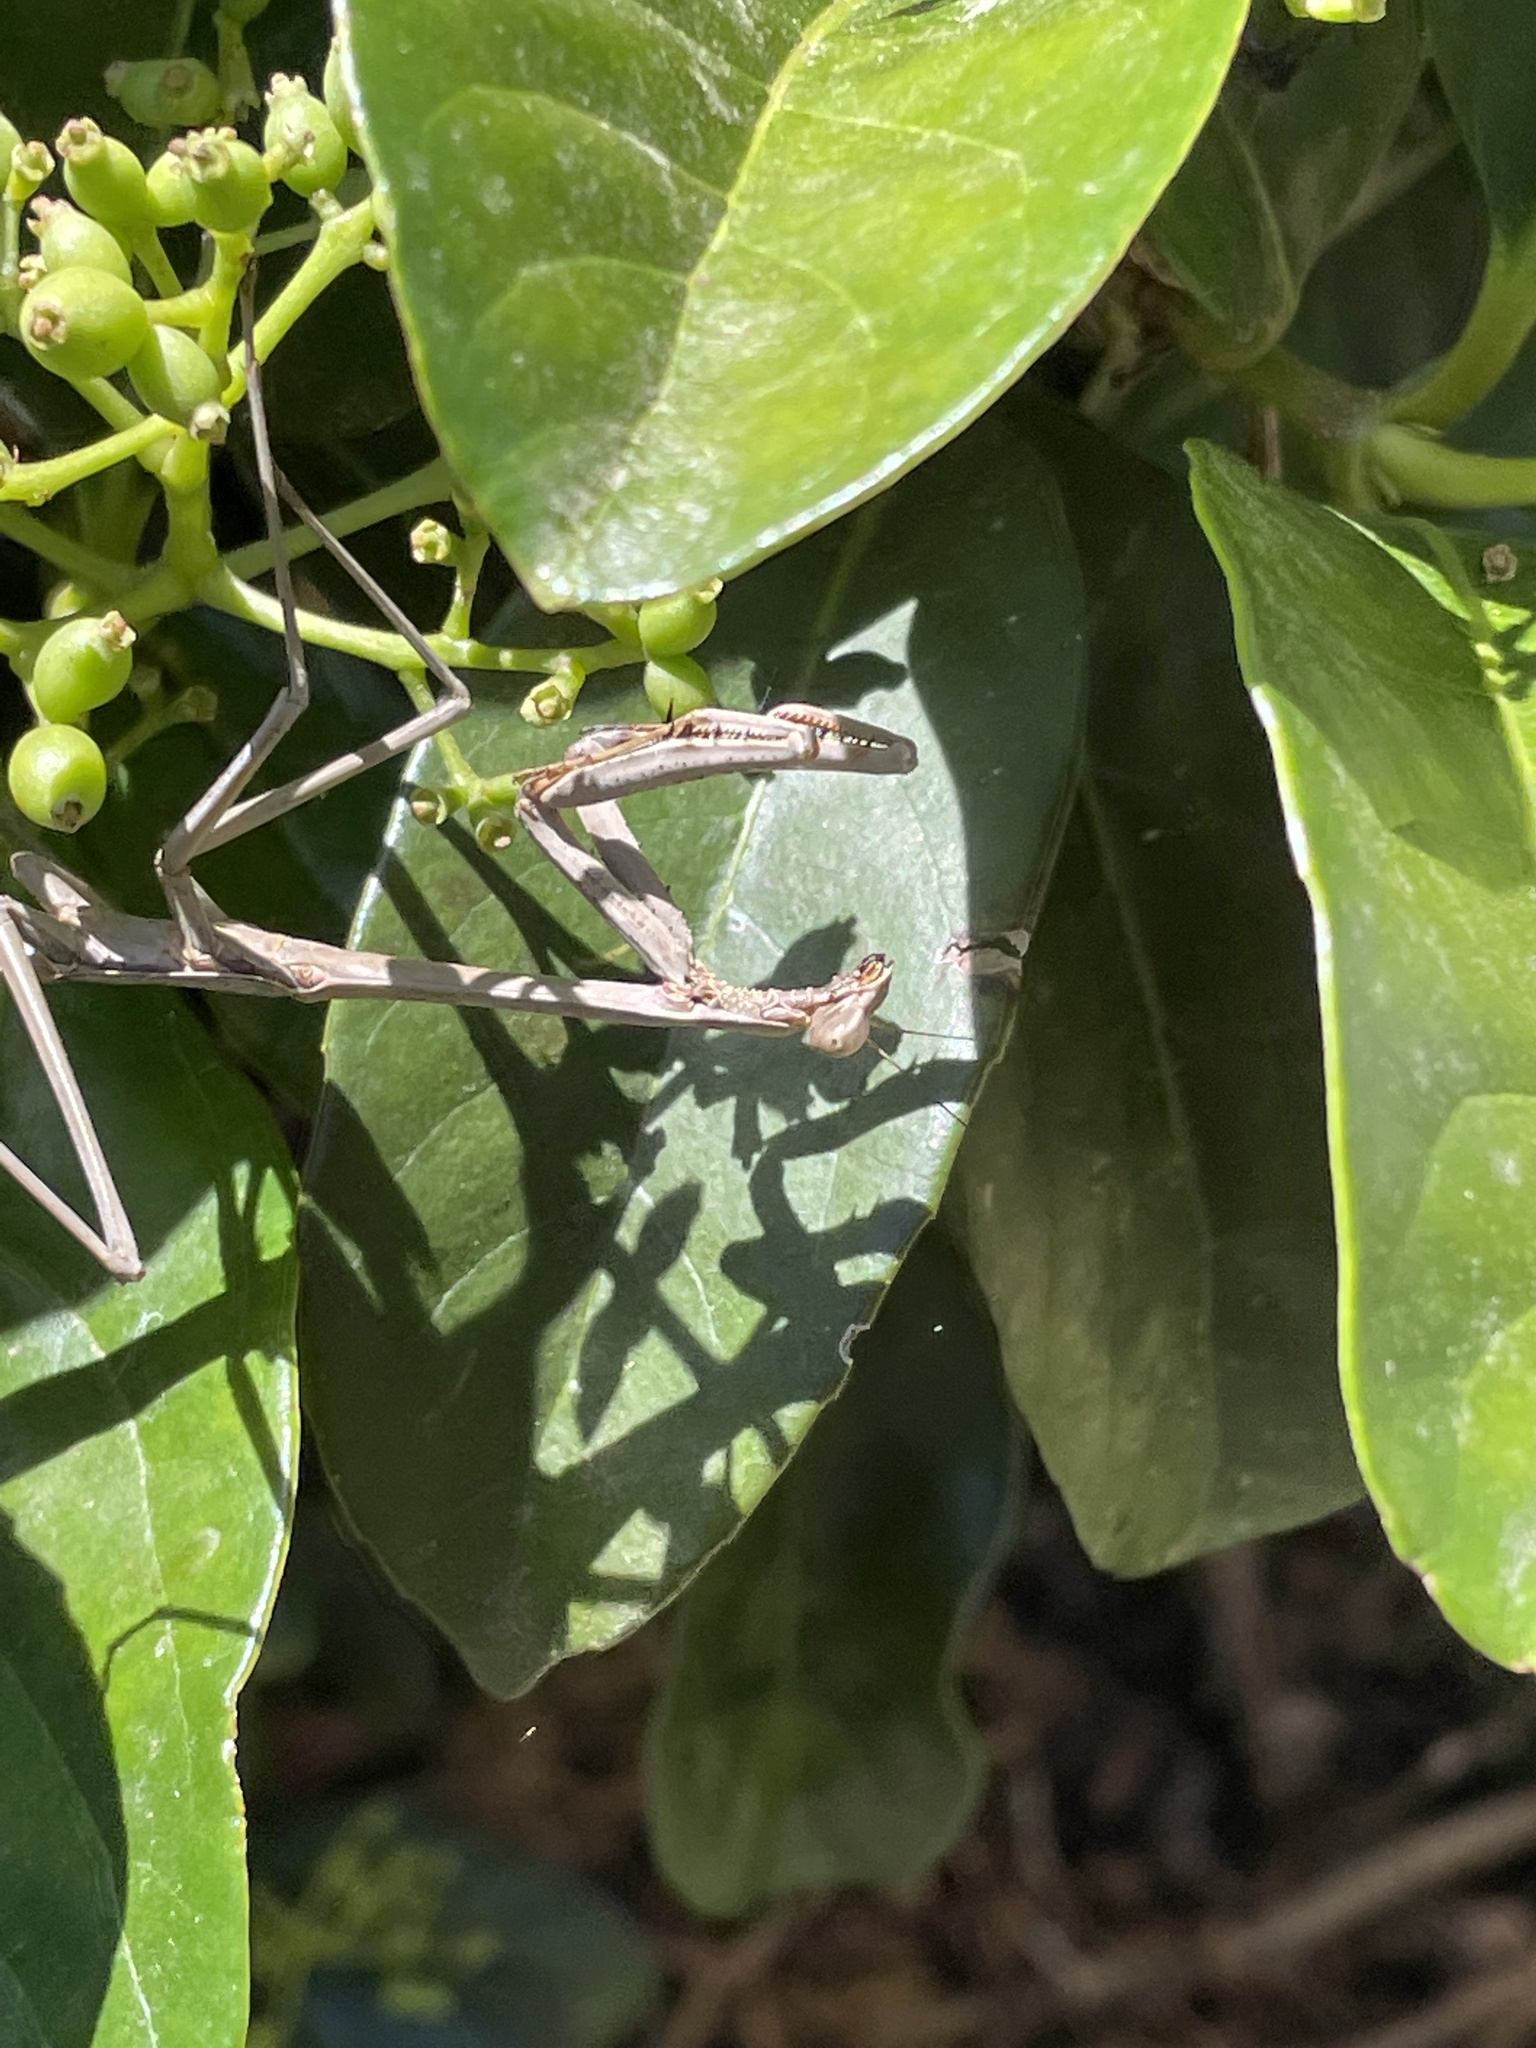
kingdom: Animalia
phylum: Arthropoda
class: Insecta
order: Mantodea
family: Mantidae
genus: Archimantis
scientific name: Archimantis latistyla
